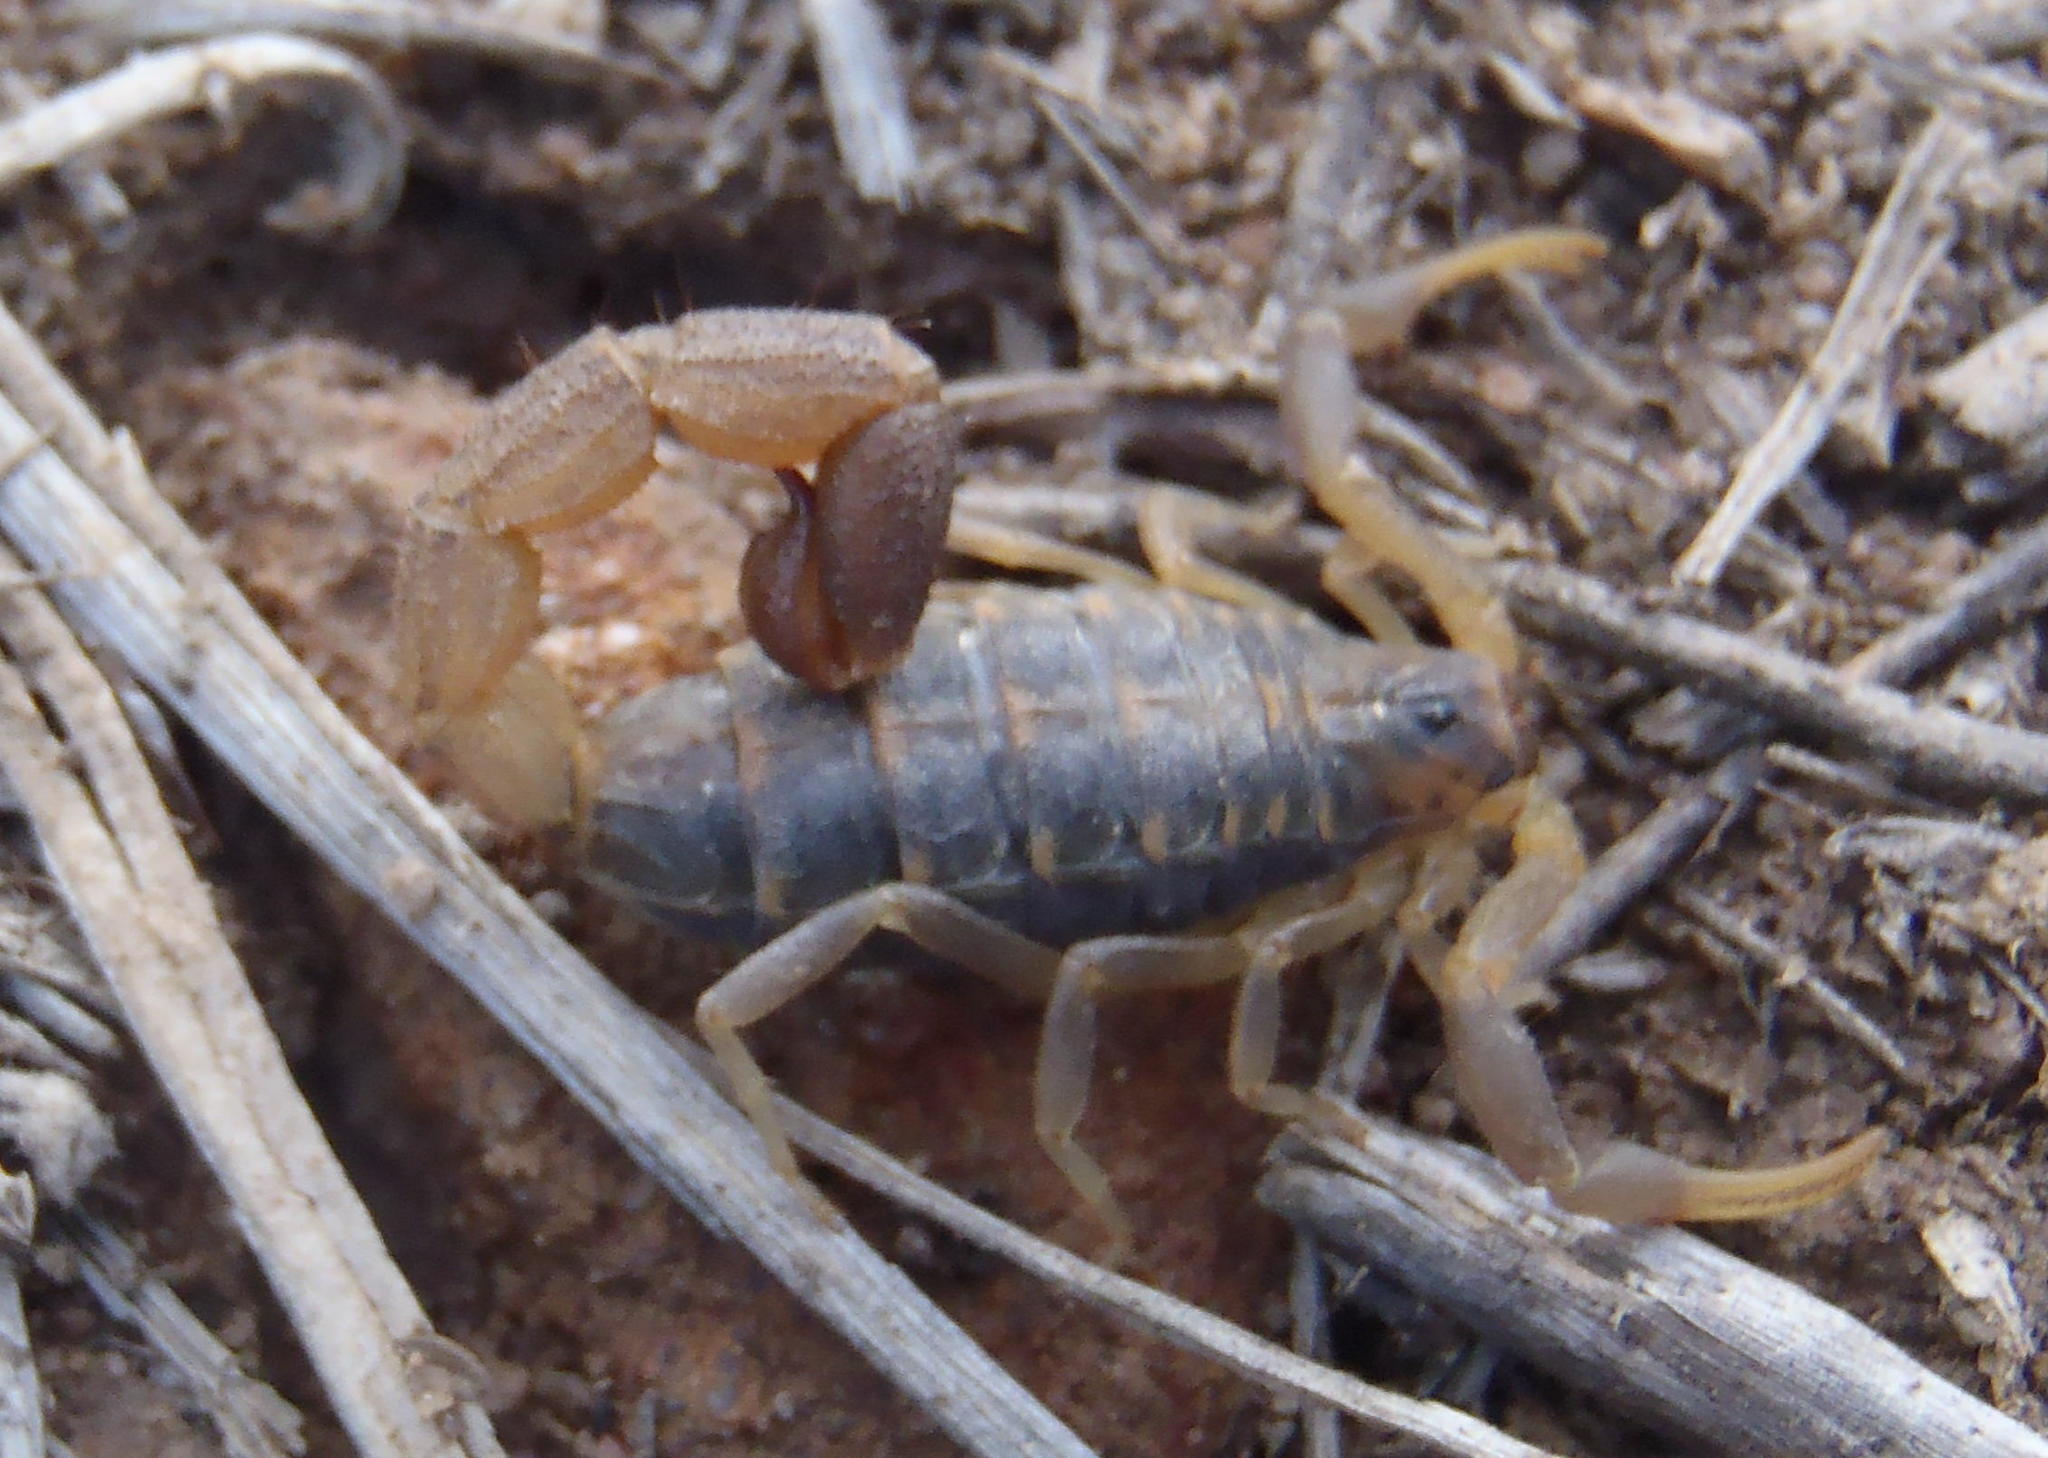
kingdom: Animalia
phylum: Arthropoda
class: Arachnida
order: Scorpiones
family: Buthidae
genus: Uroplectes
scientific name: Uroplectes triangulifer
